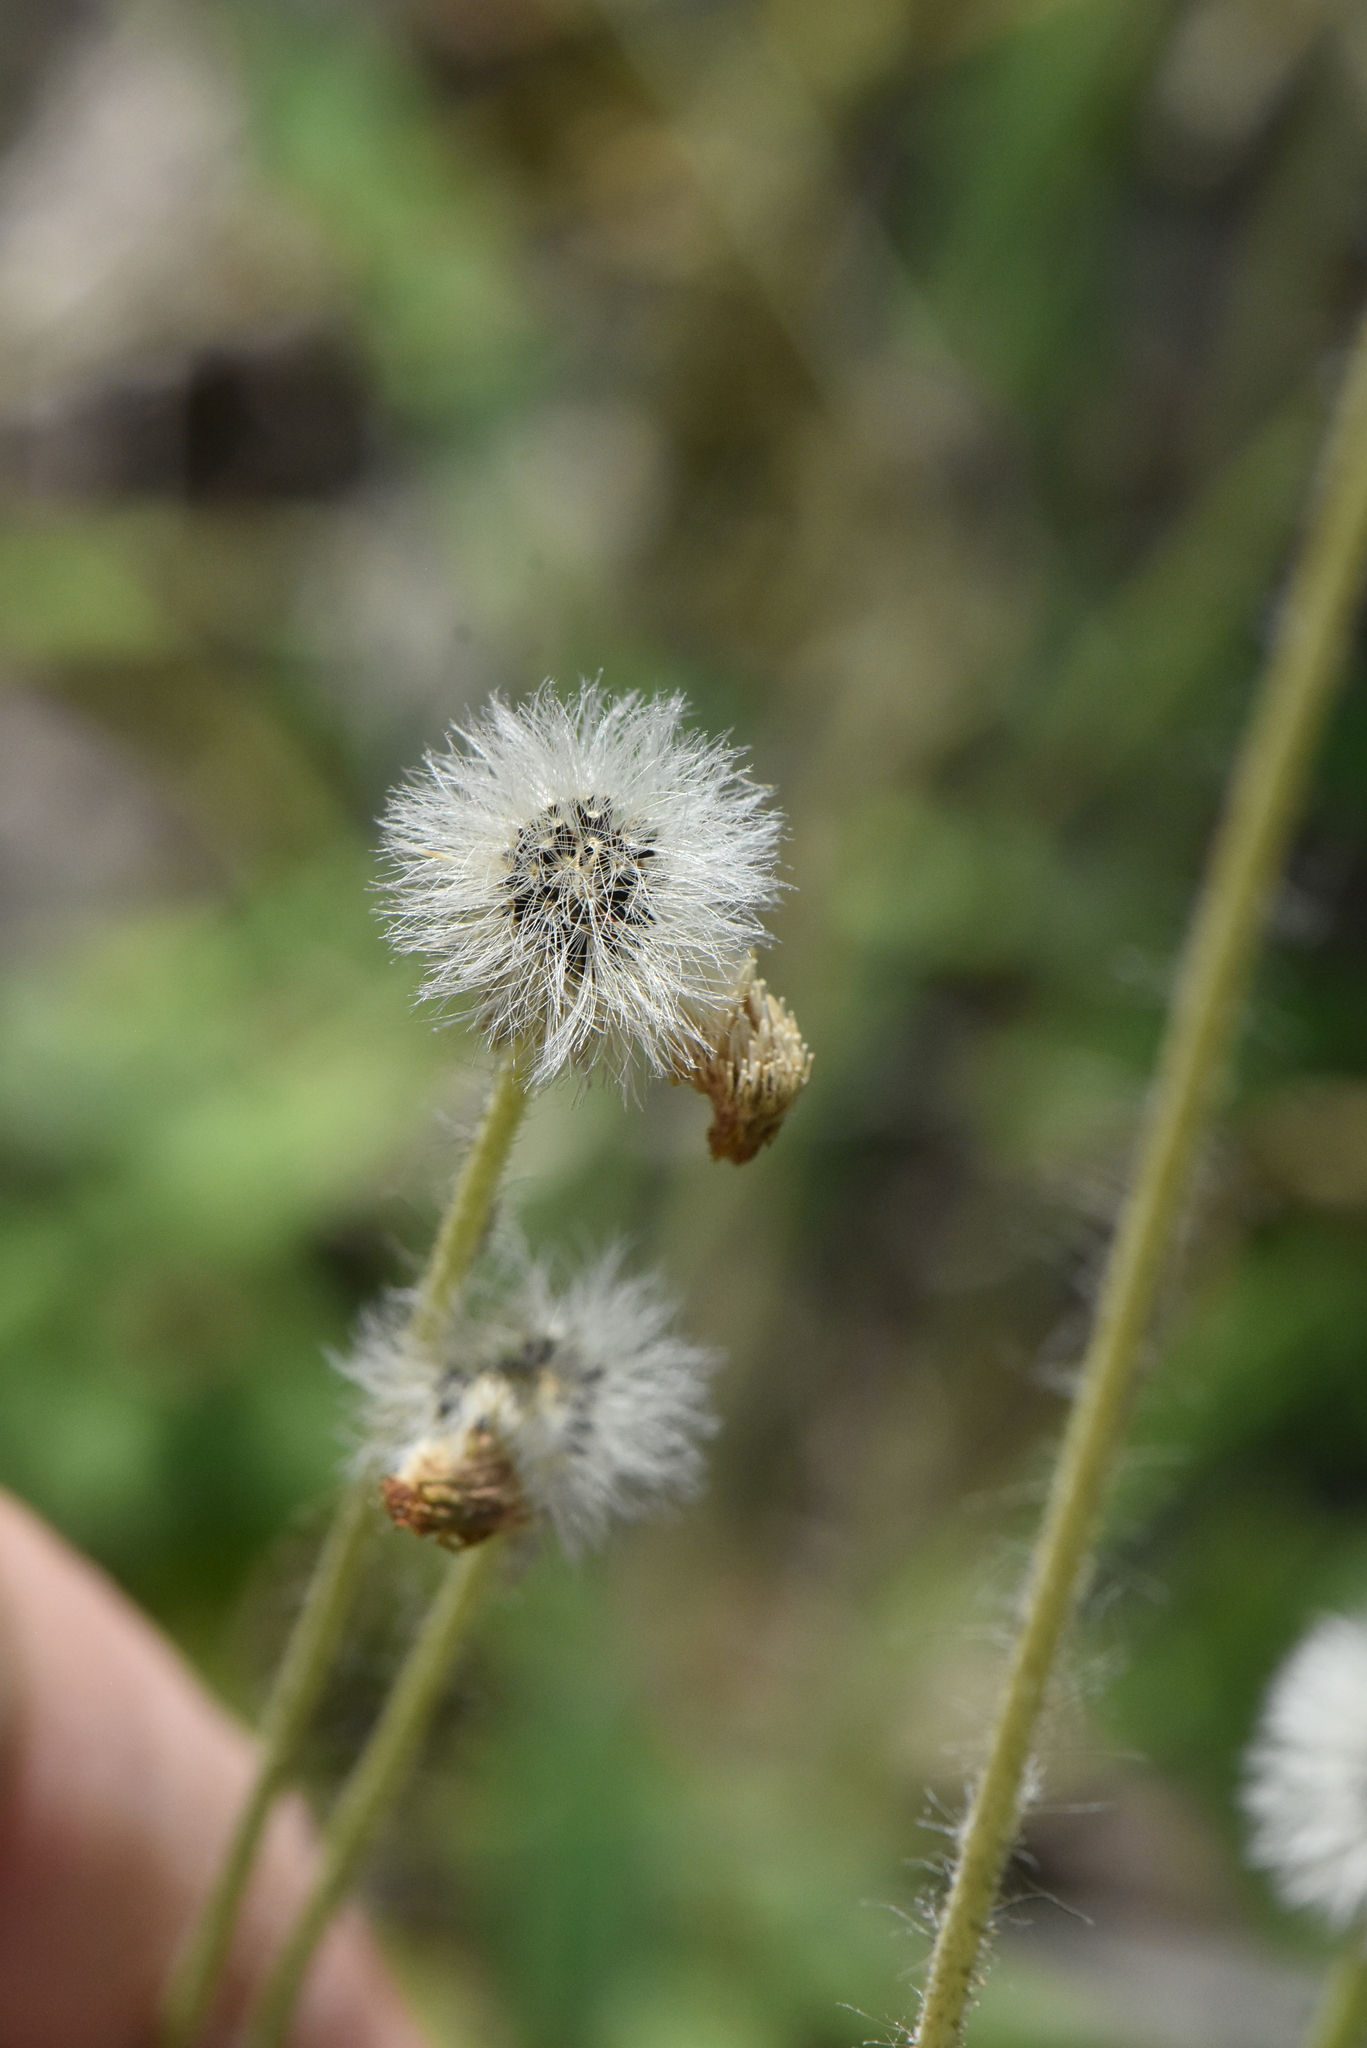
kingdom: Plantae
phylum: Tracheophyta
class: Magnoliopsida
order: Asterales
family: Asteraceae
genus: Pilosella
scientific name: Pilosella officinarum
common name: Mouse-ear hawkweed
